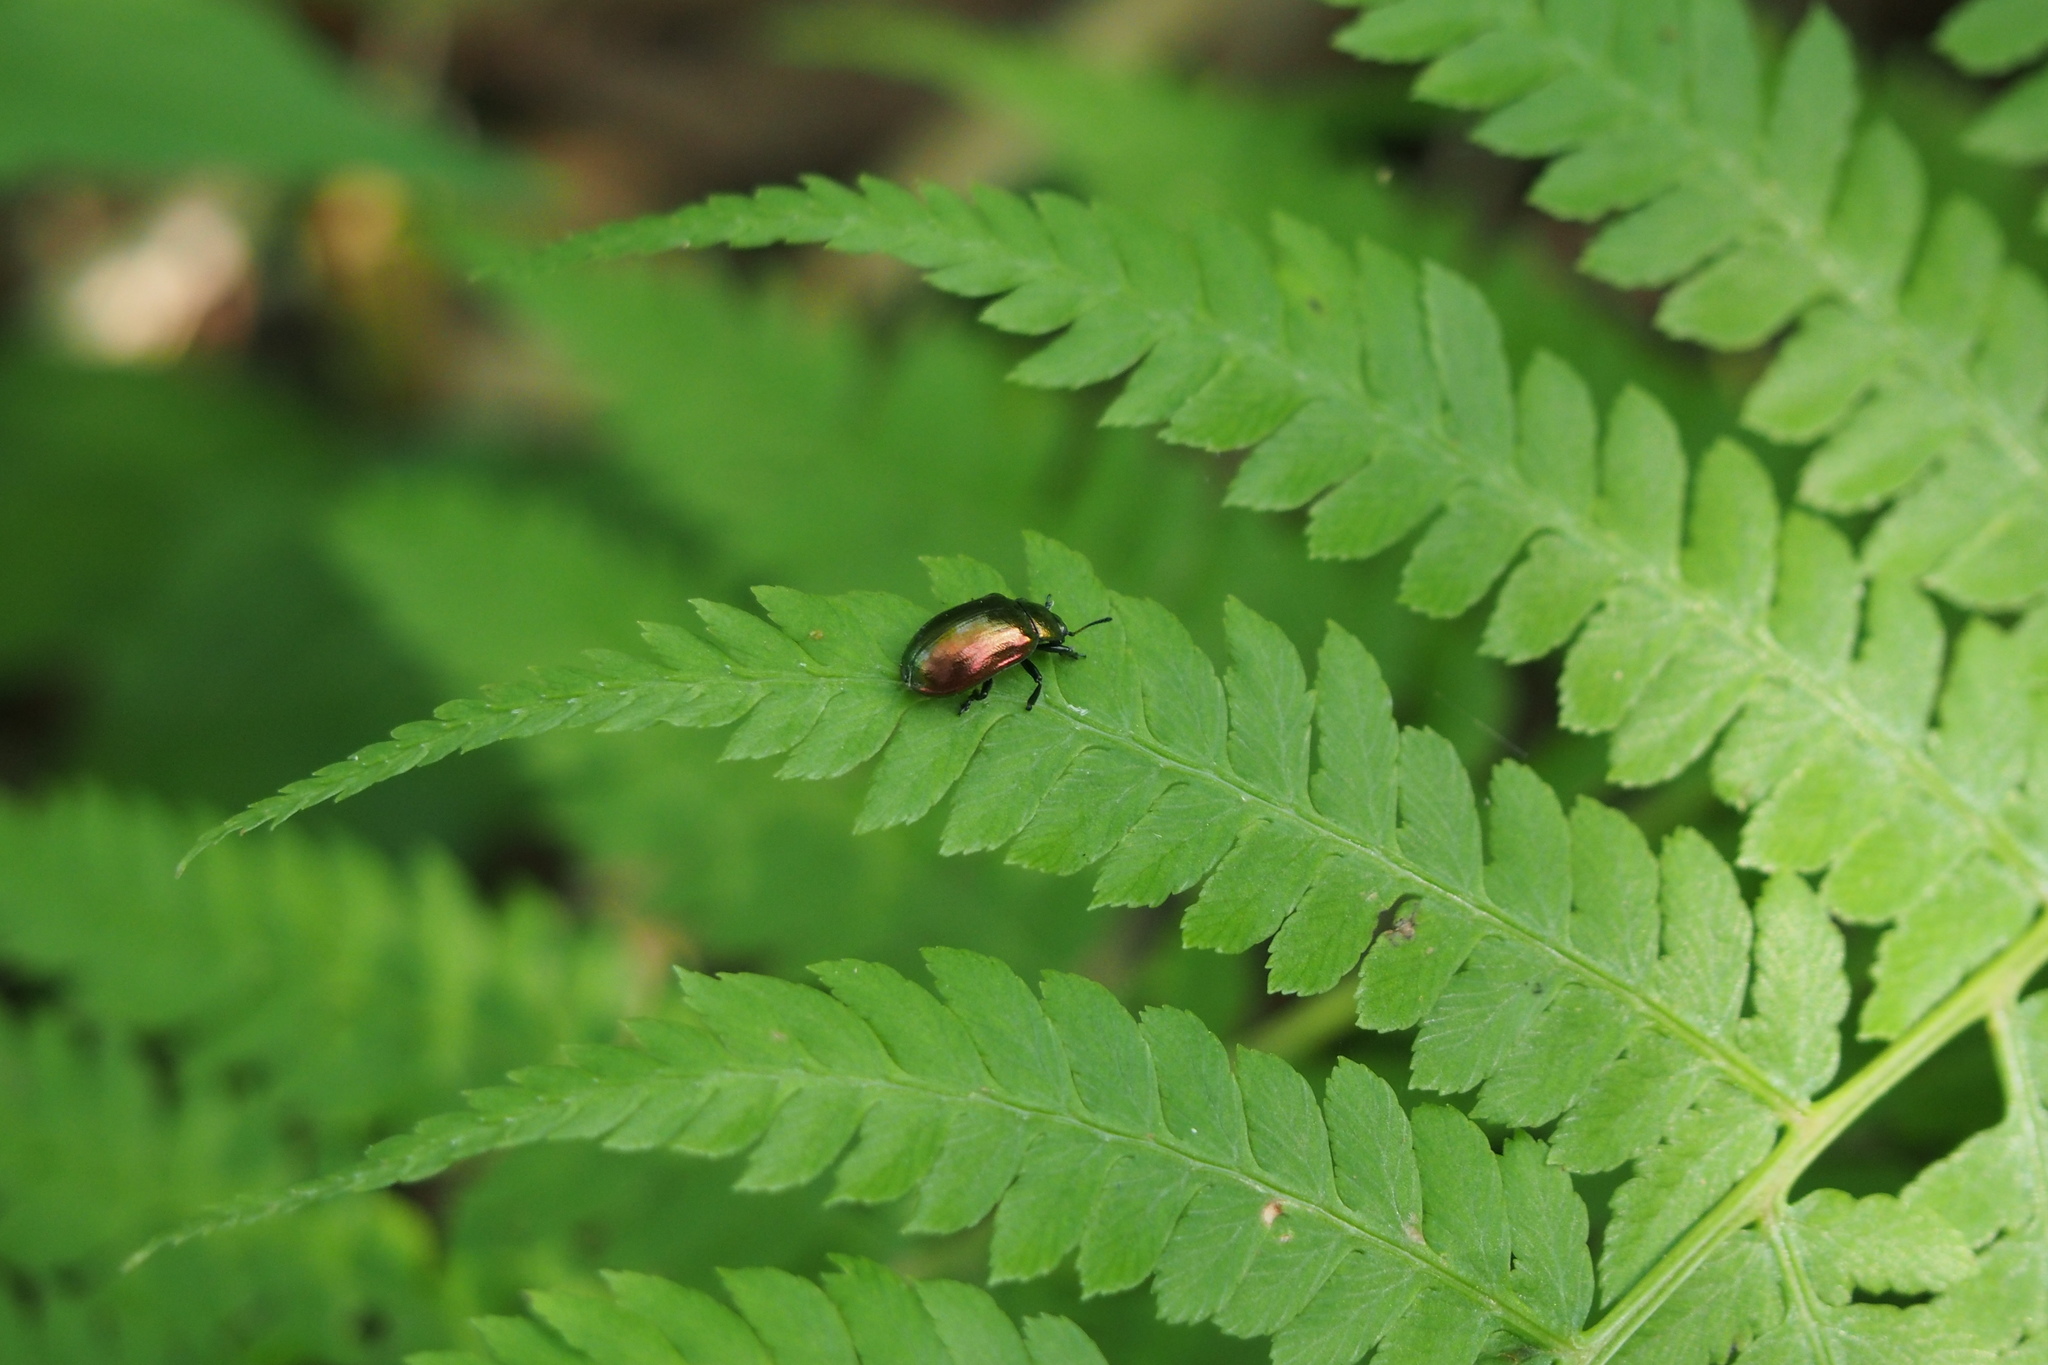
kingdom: Animalia
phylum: Arthropoda
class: Insecta
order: Coleoptera
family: Chrysomelidae
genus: Plagiosterna
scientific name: Plagiosterna aenea
